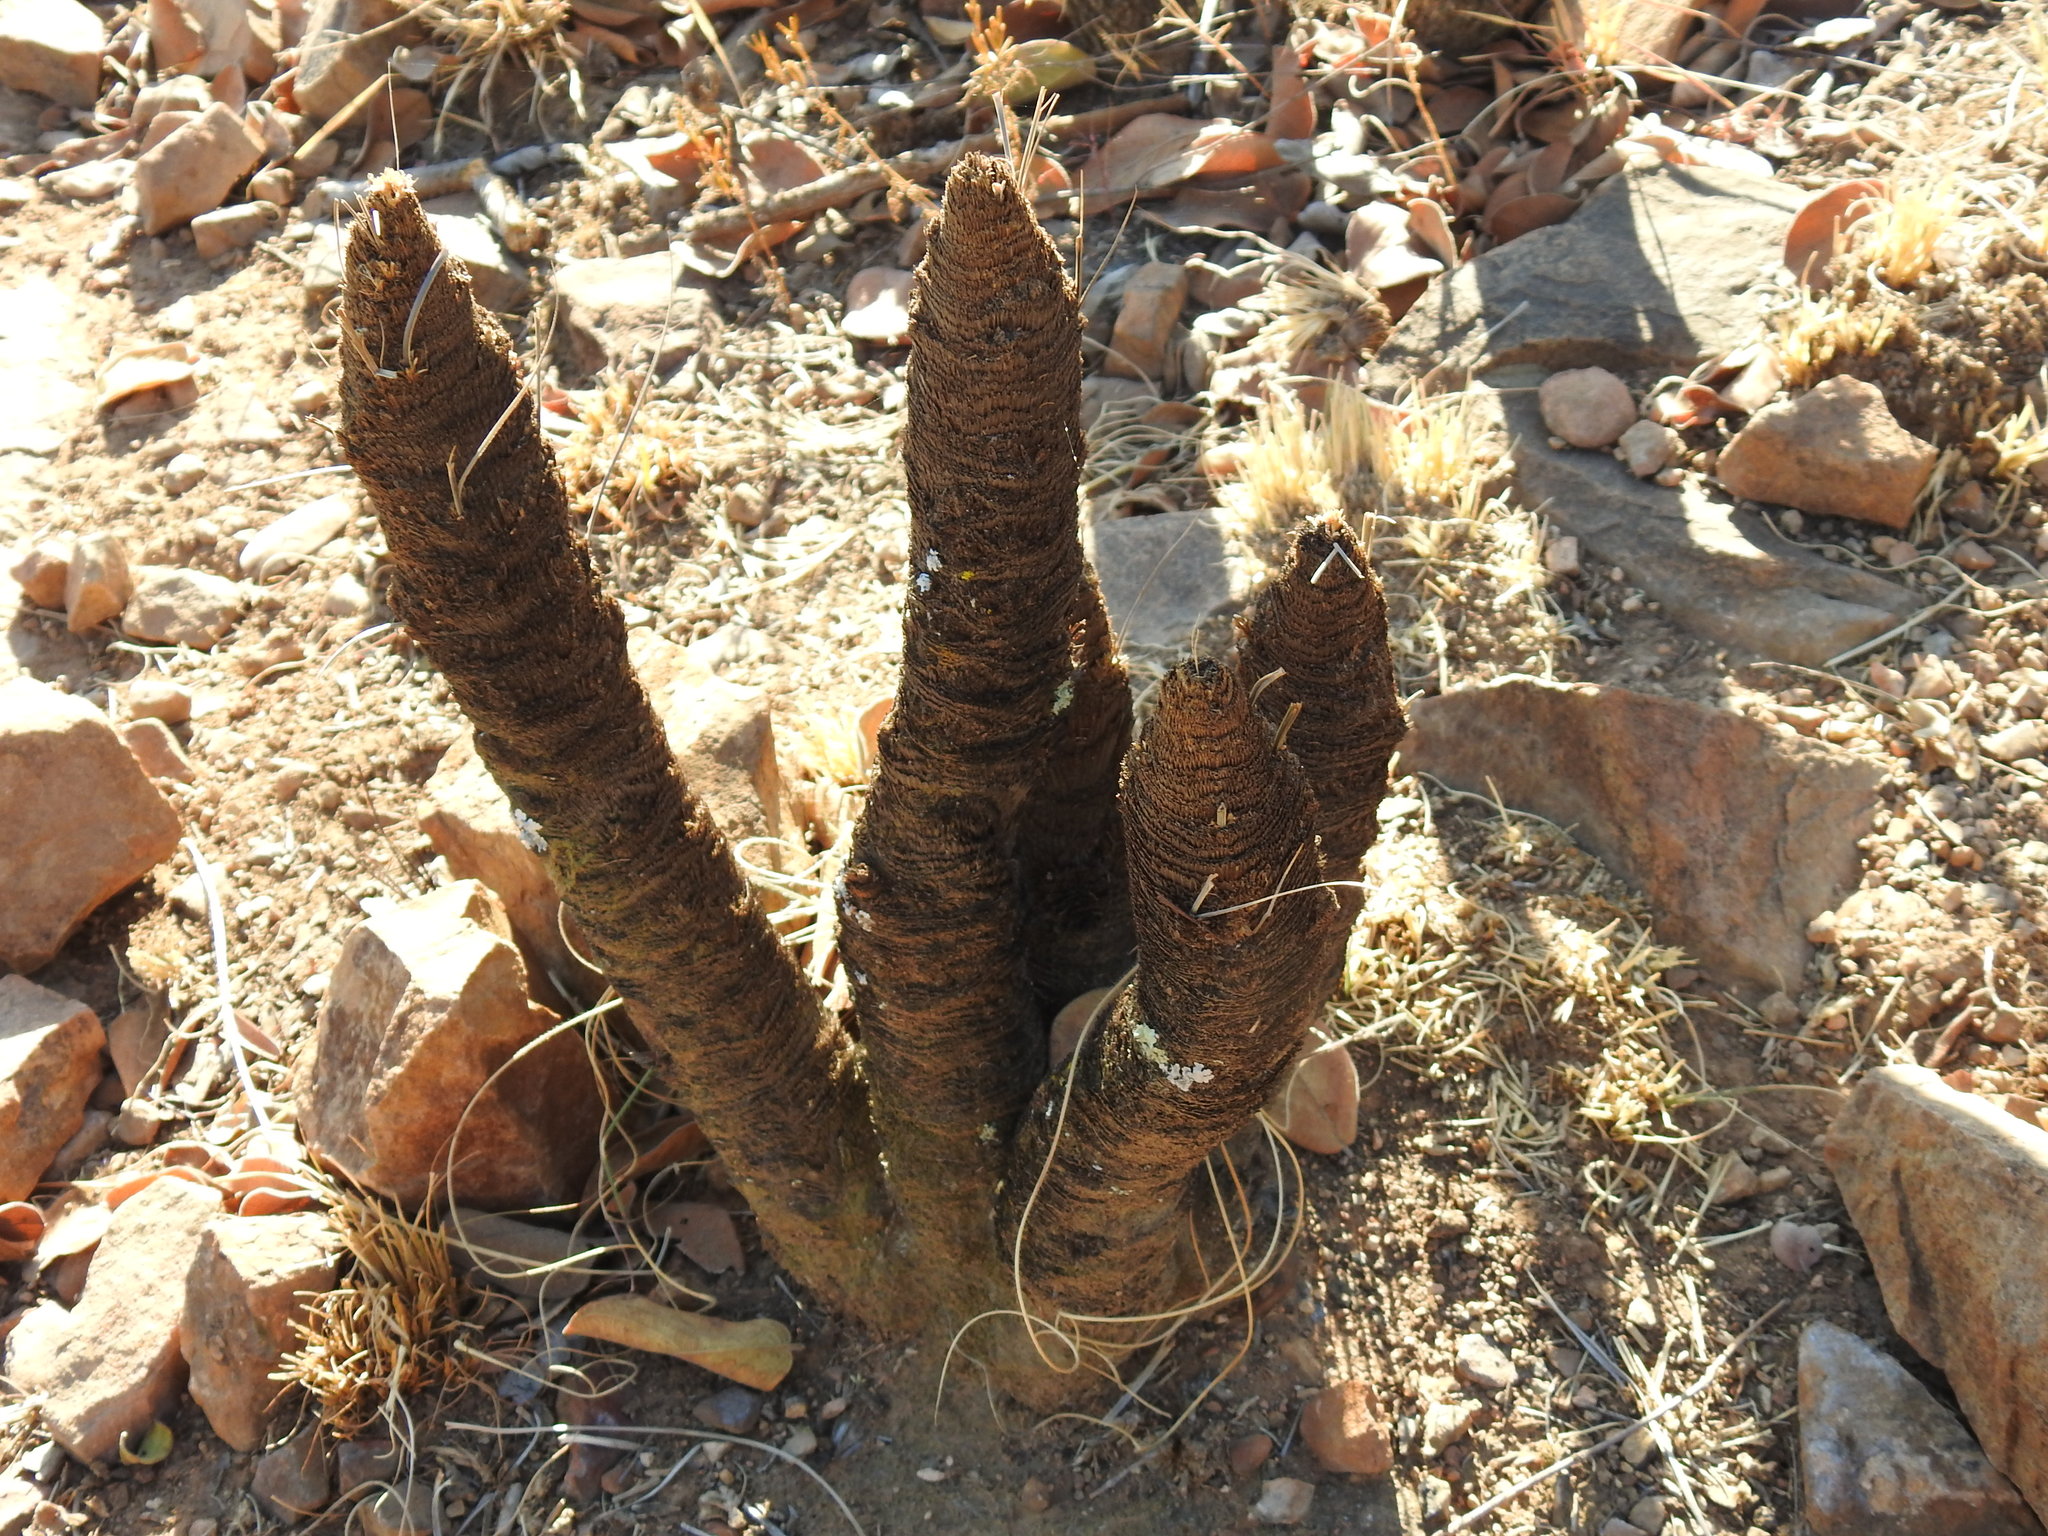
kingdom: Plantae
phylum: Tracheophyta
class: Liliopsida
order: Pandanales
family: Velloziaceae
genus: Xerophyta
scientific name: Xerophyta retinervis
